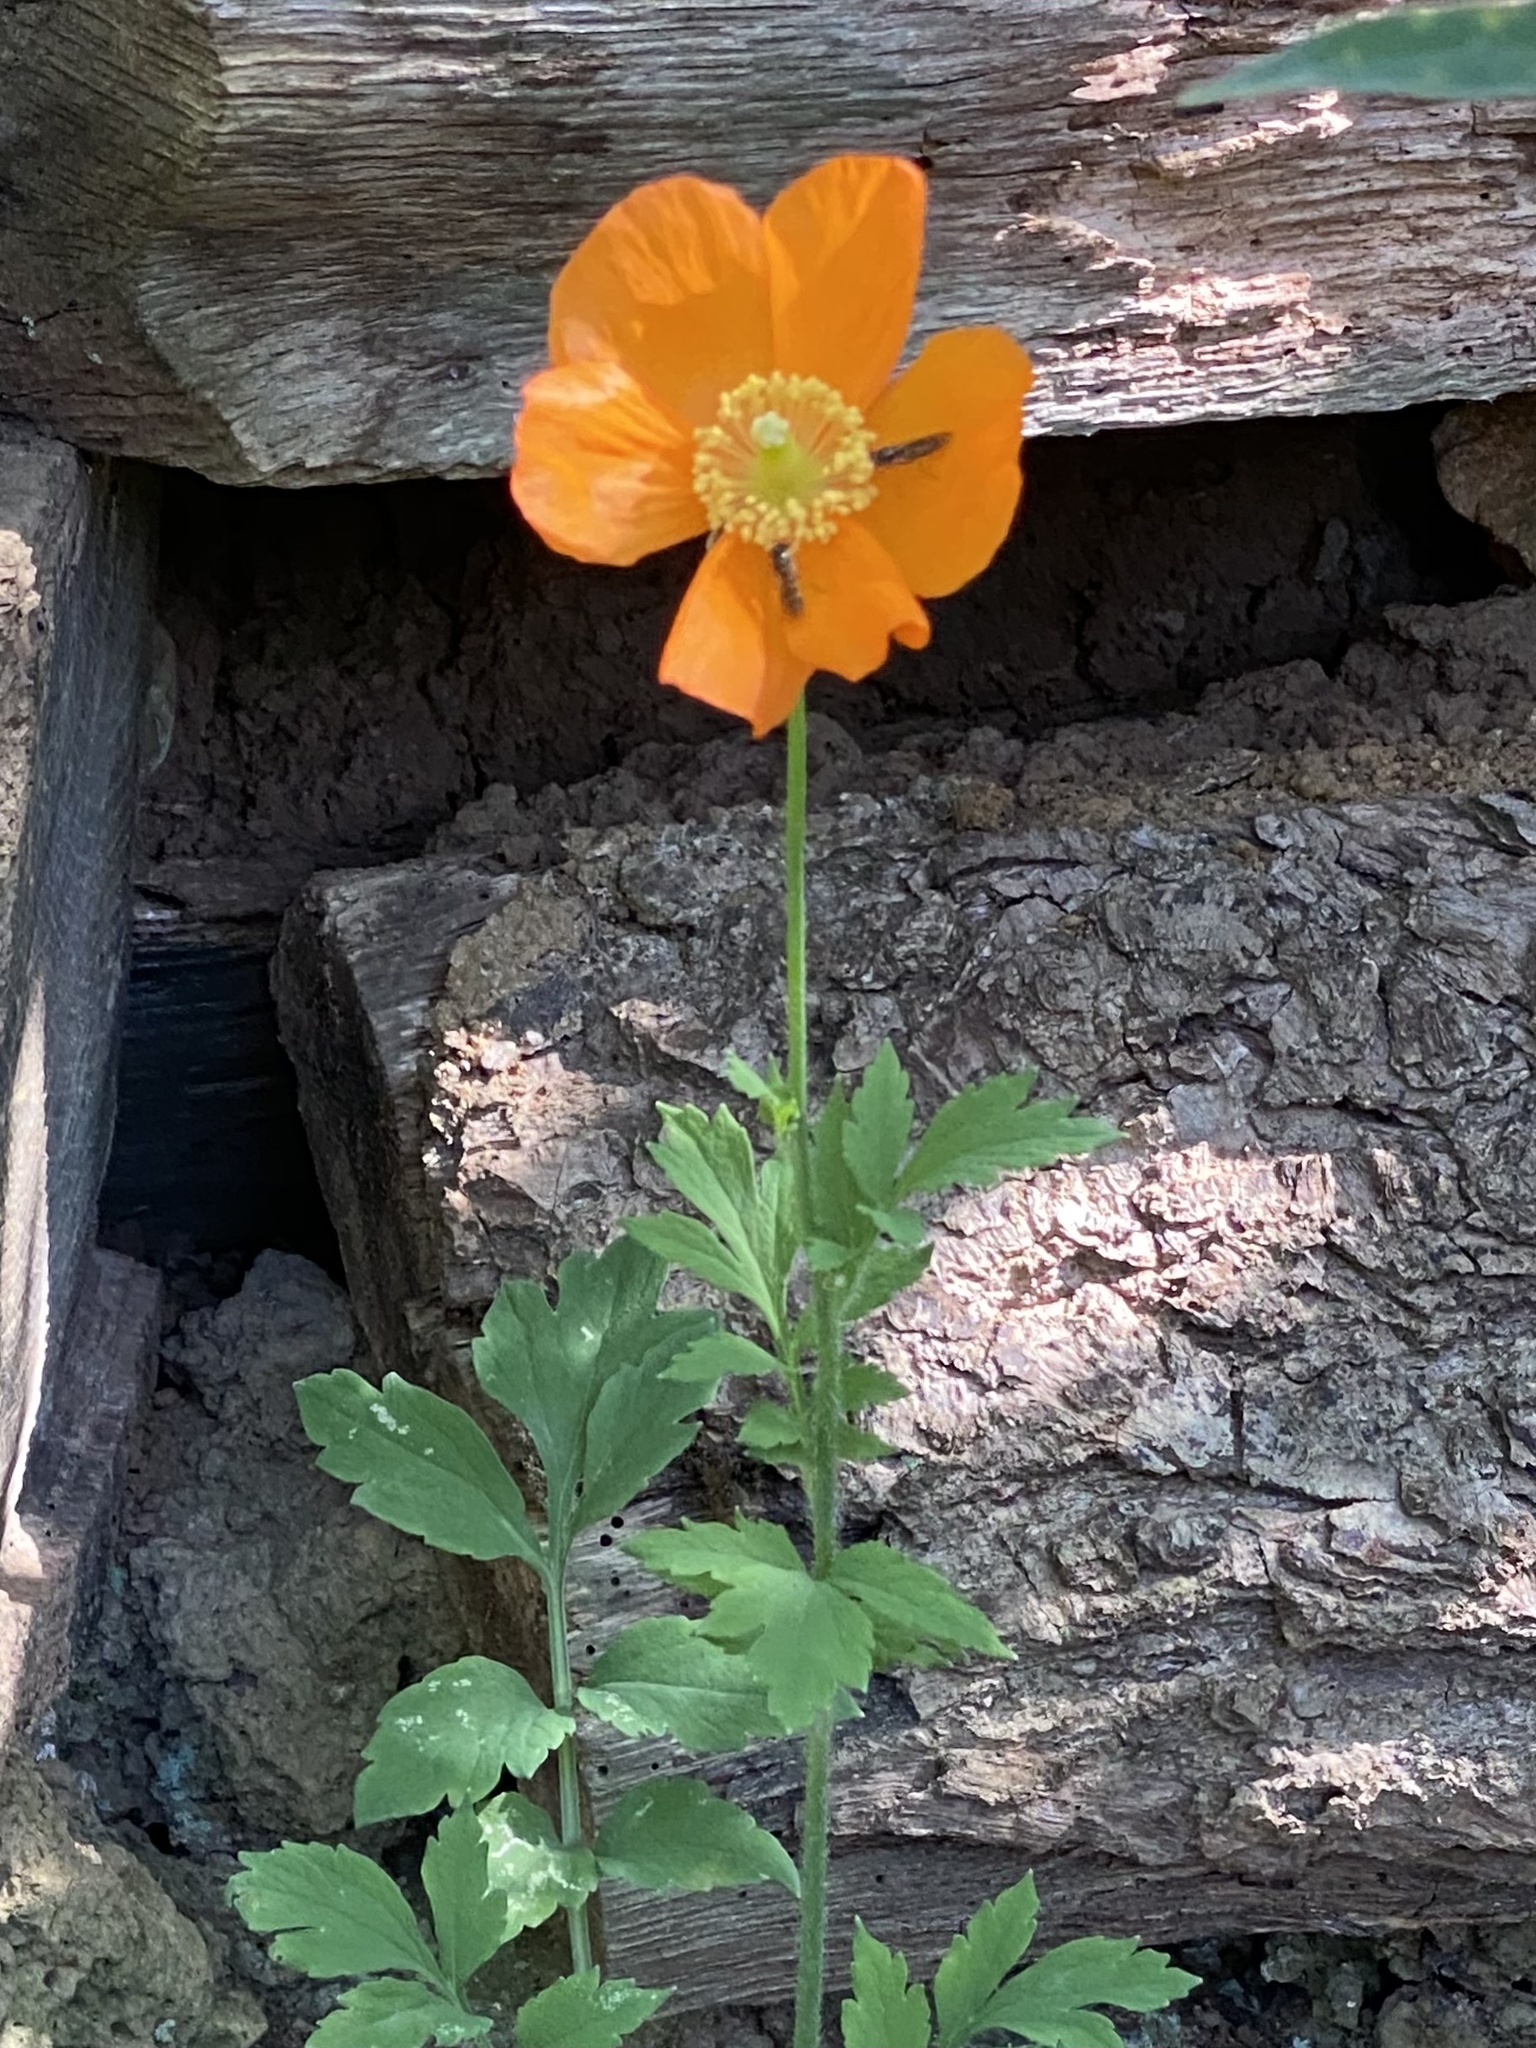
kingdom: Plantae
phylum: Tracheophyta
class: Magnoliopsida
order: Ranunculales
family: Papaveraceae
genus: Papaver
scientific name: Papaver cambricum
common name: Poppy
